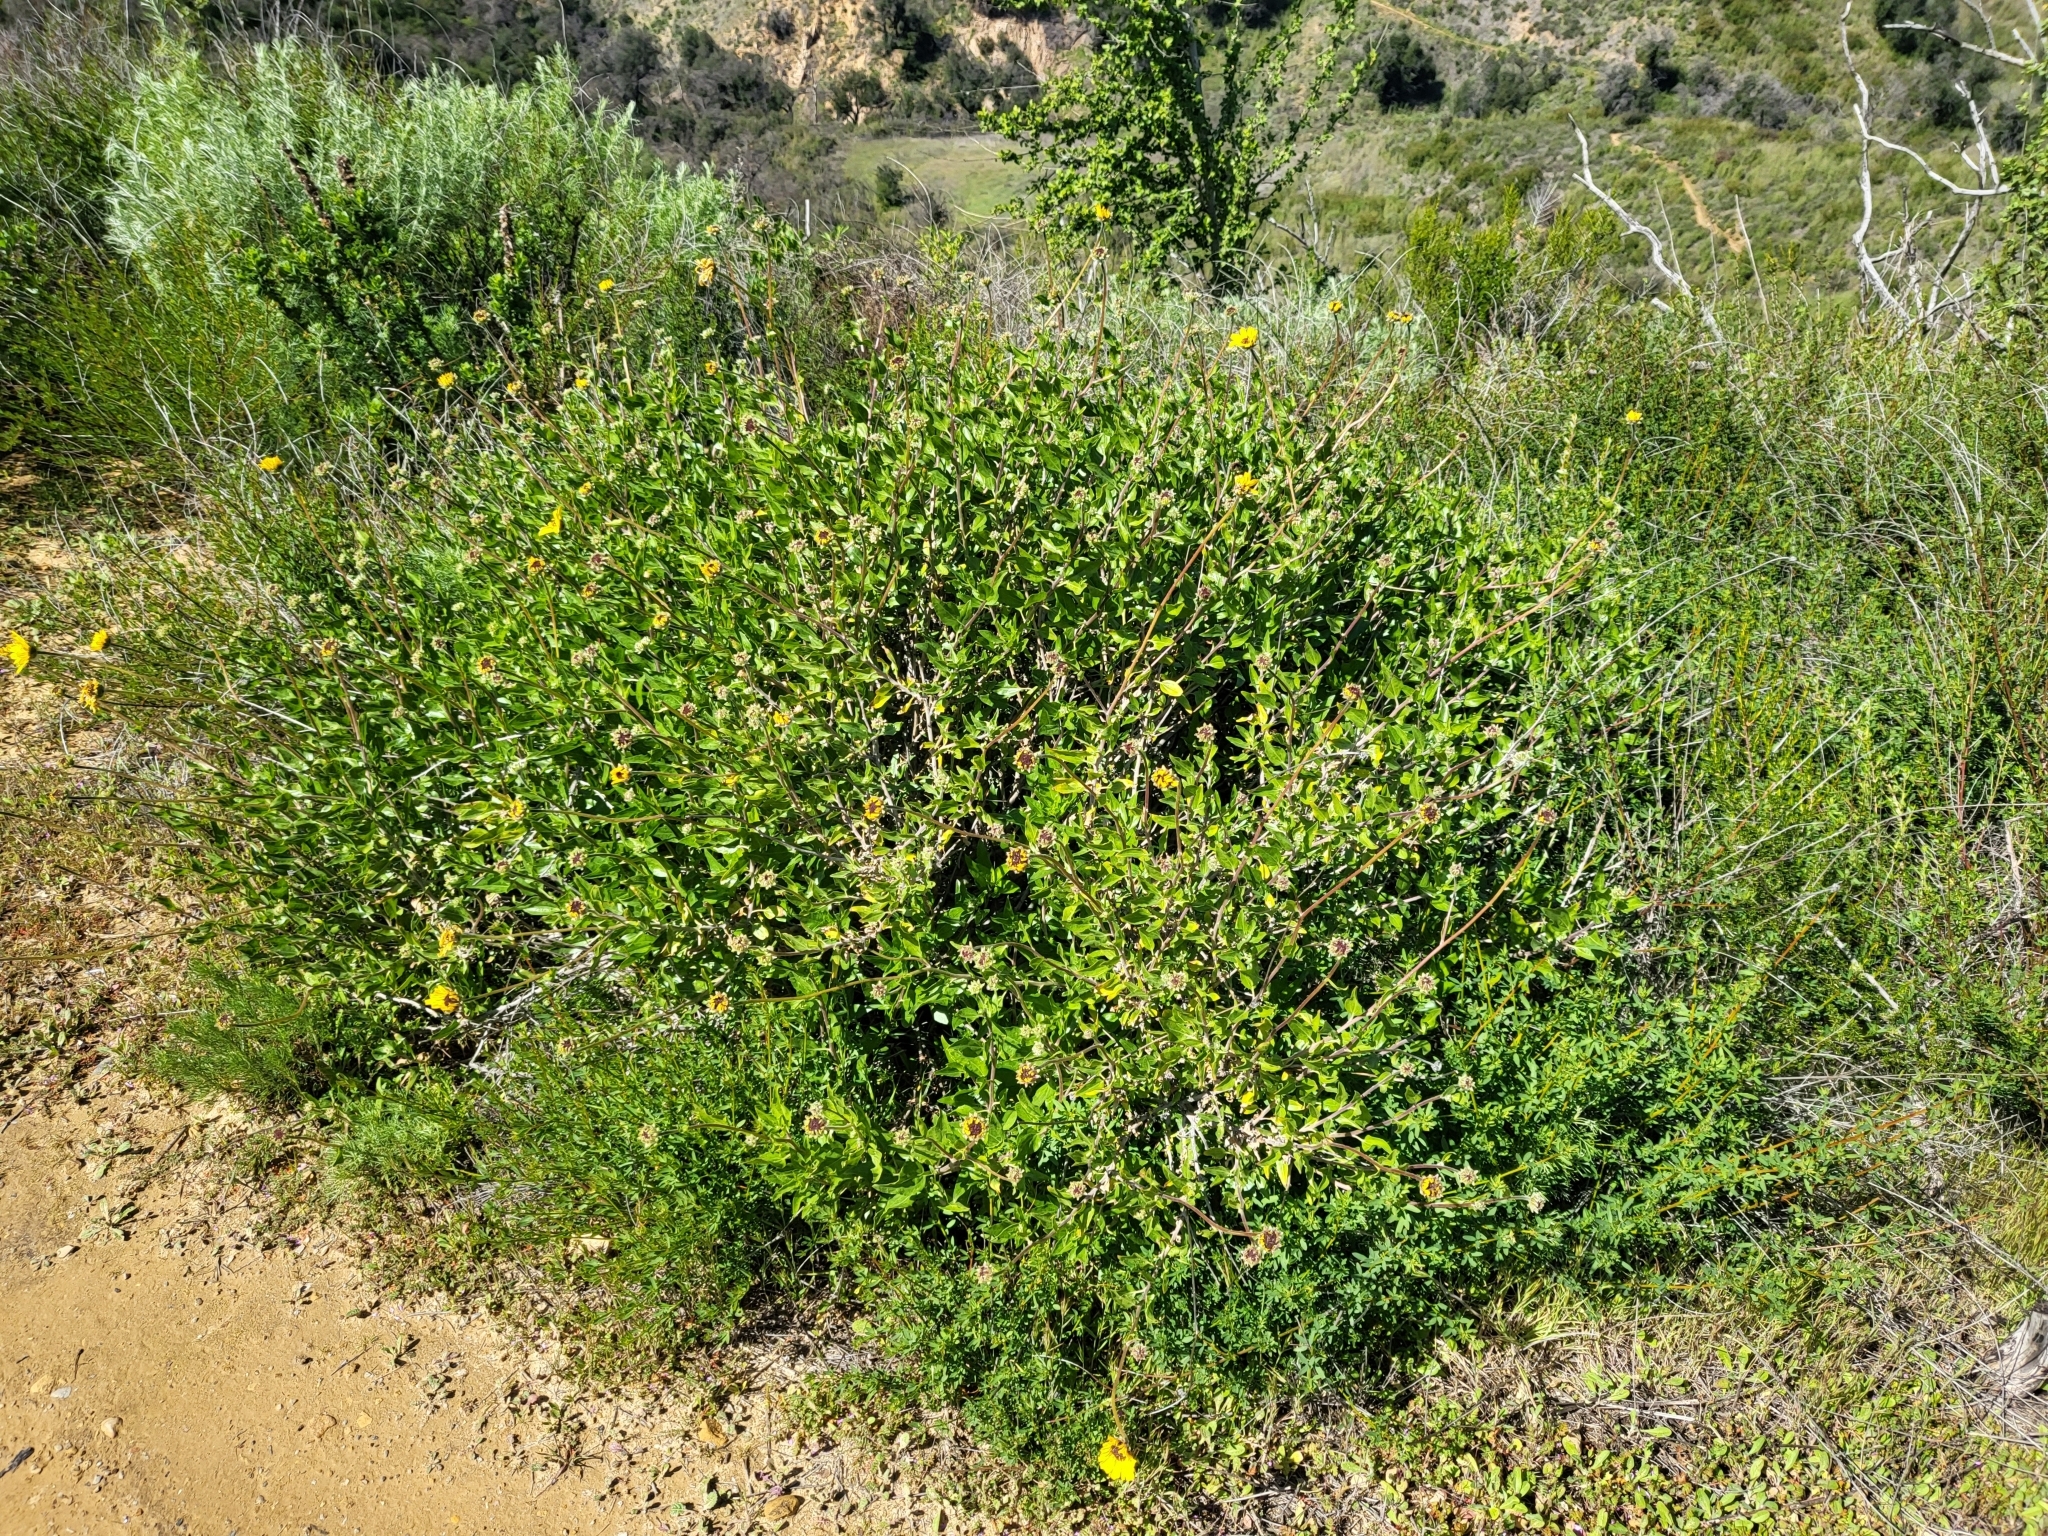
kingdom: Plantae
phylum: Tracheophyta
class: Magnoliopsida
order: Asterales
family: Asteraceae
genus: Encelia
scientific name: Encelia californica
